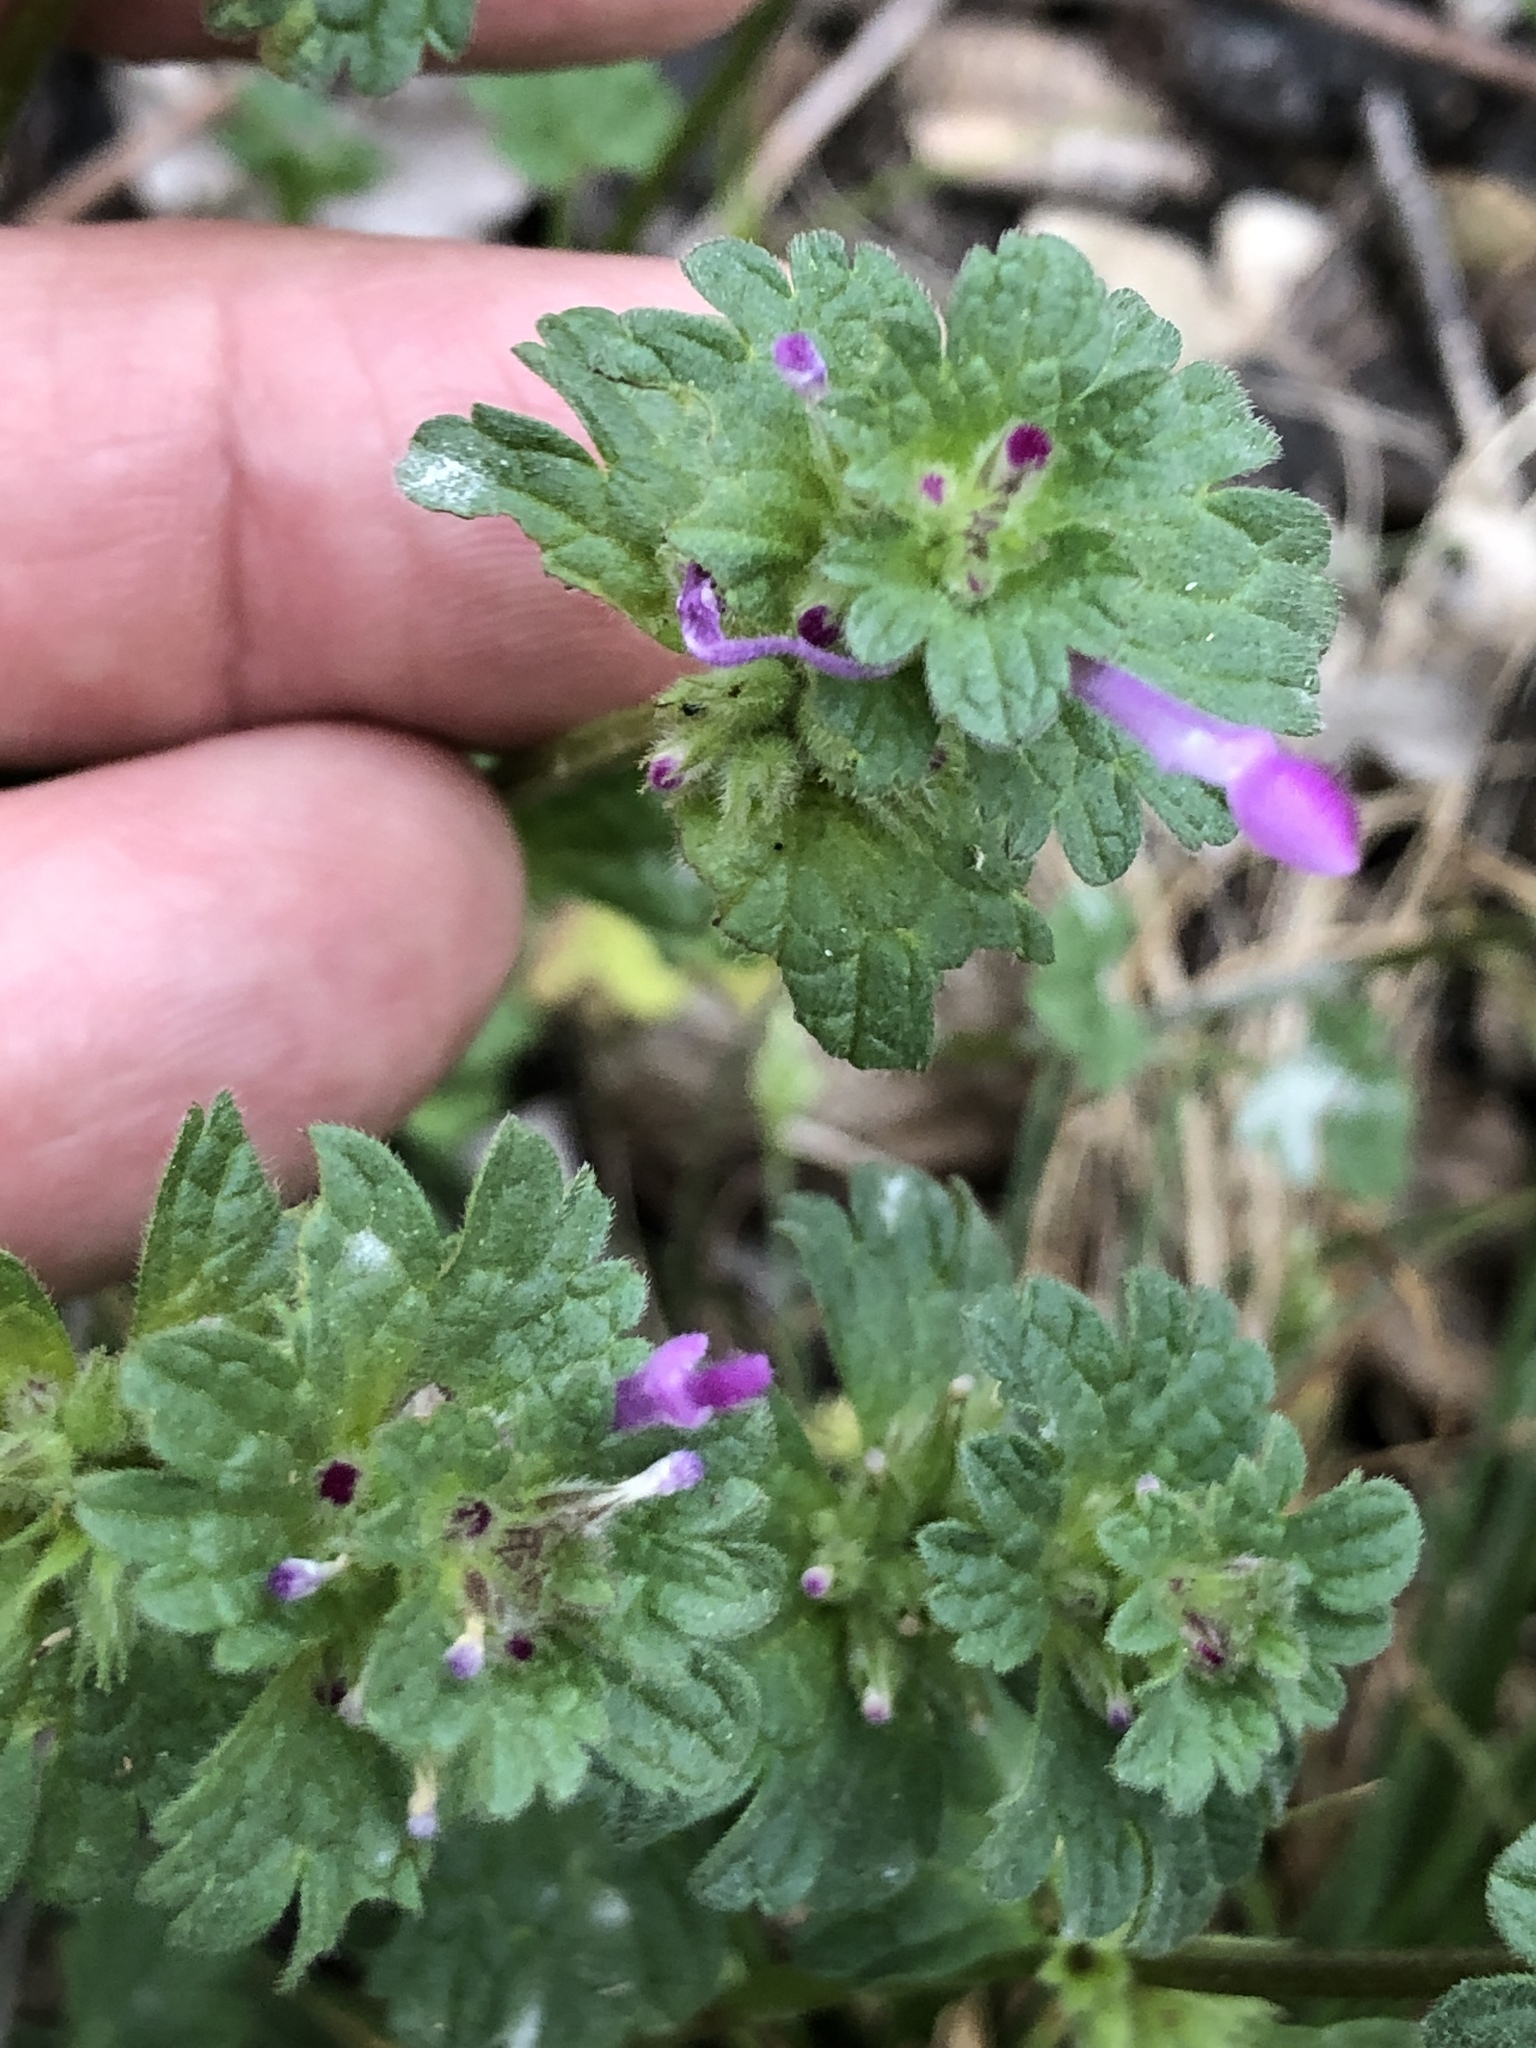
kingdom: Plantae
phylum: Tracheophyta
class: Magnoliopsida
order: Lamiales
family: Lamiaceae
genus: Lamium
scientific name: Lamium amplexicaule
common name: Henbit dead-nettle
